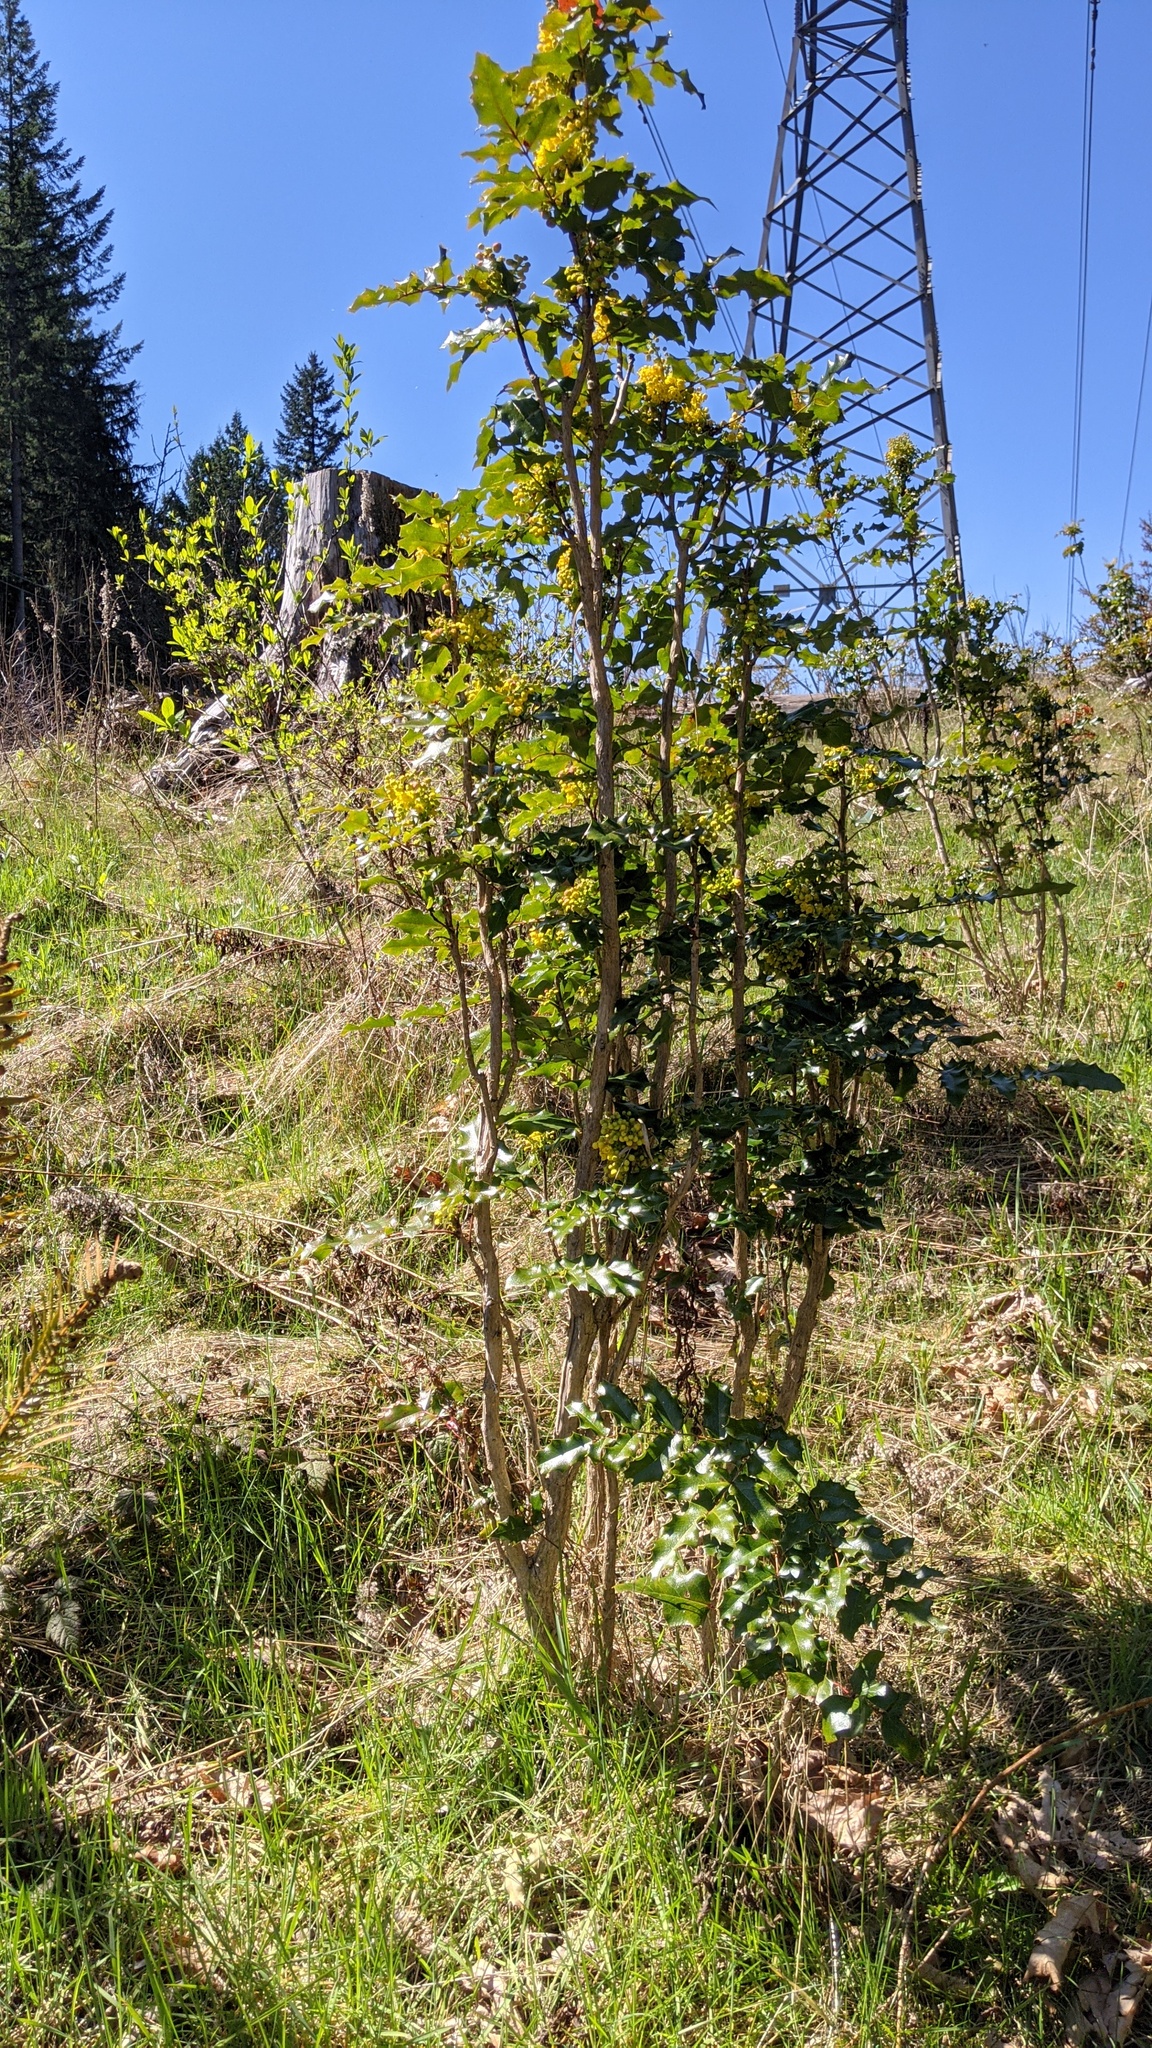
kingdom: Plantae
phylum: Tracheophyta
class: Magnoliopsida
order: Ranunculales
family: Berberidaceae
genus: Mahonia
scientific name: Mahonia aquifolium
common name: Oregon-grape
